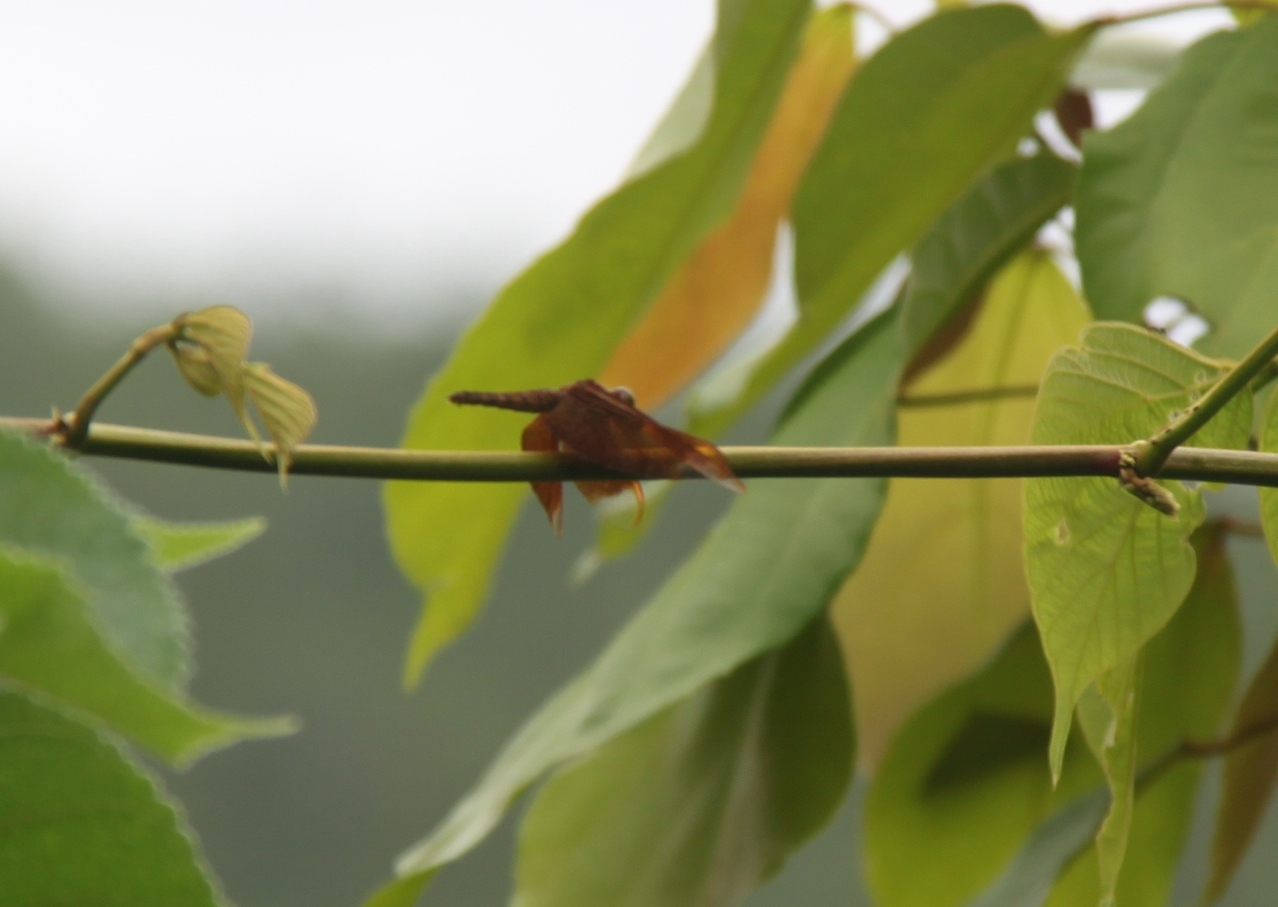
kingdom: Animalia
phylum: Arthropoda
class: Insecta
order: Odonata
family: Libellulidae
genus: Neurothemis
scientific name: Neurothemis fulvia
